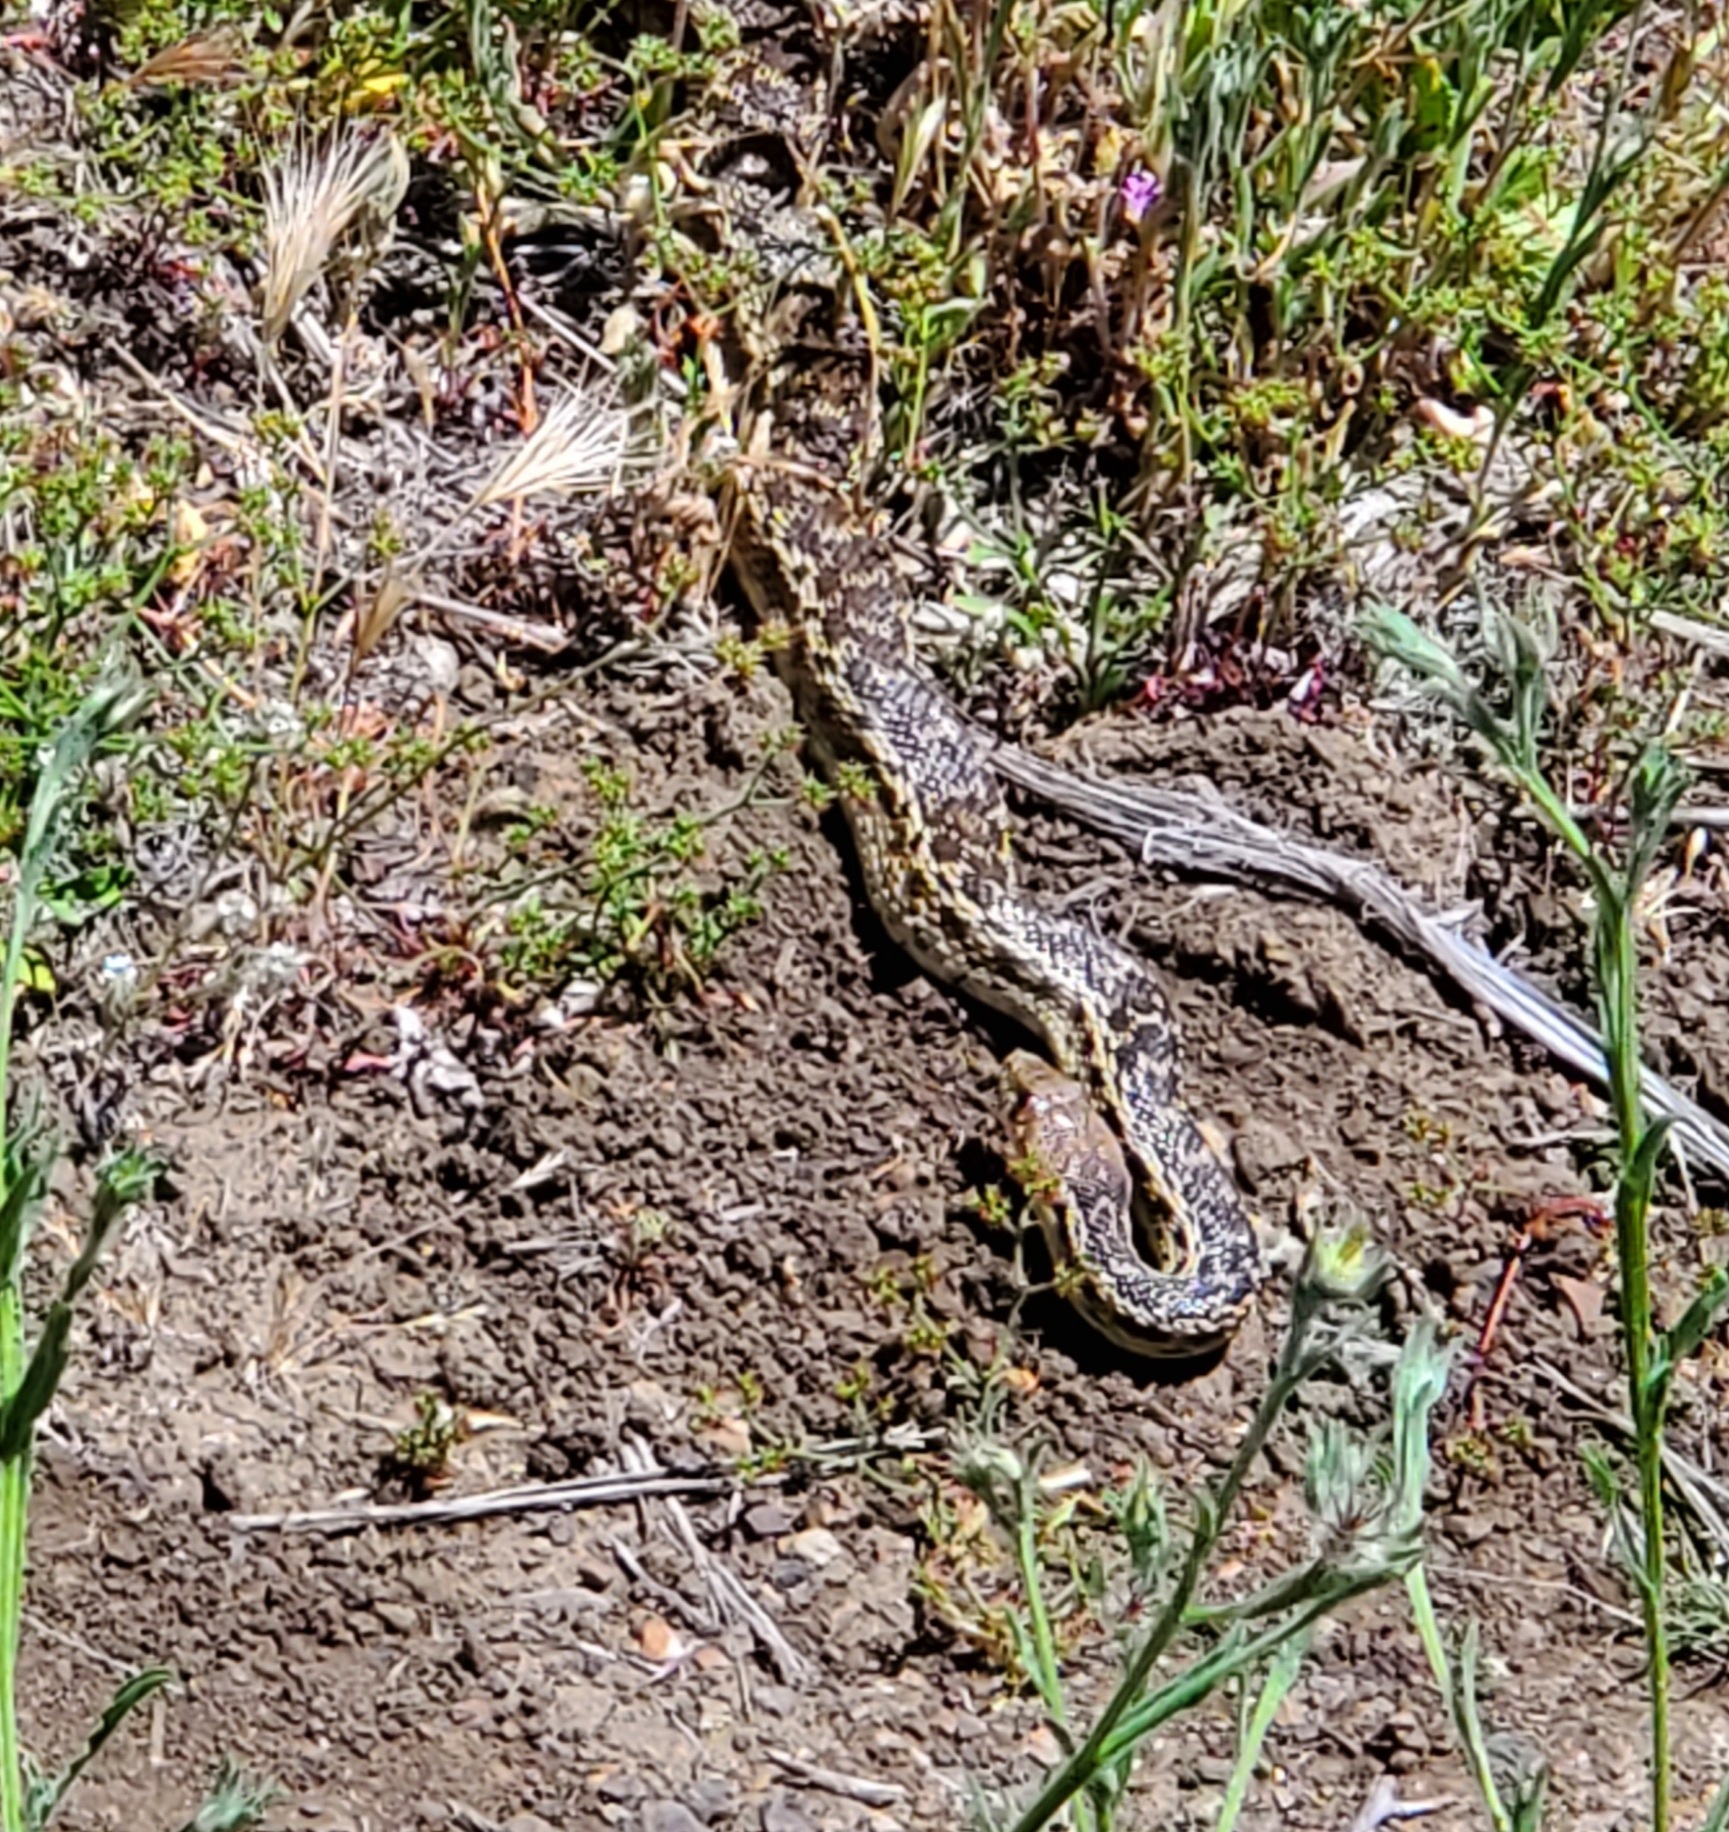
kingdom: Animalia
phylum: Chordata
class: Squamata
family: Colubridae
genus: Pituophis
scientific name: Pituophis catenifer
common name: Gopher snake
